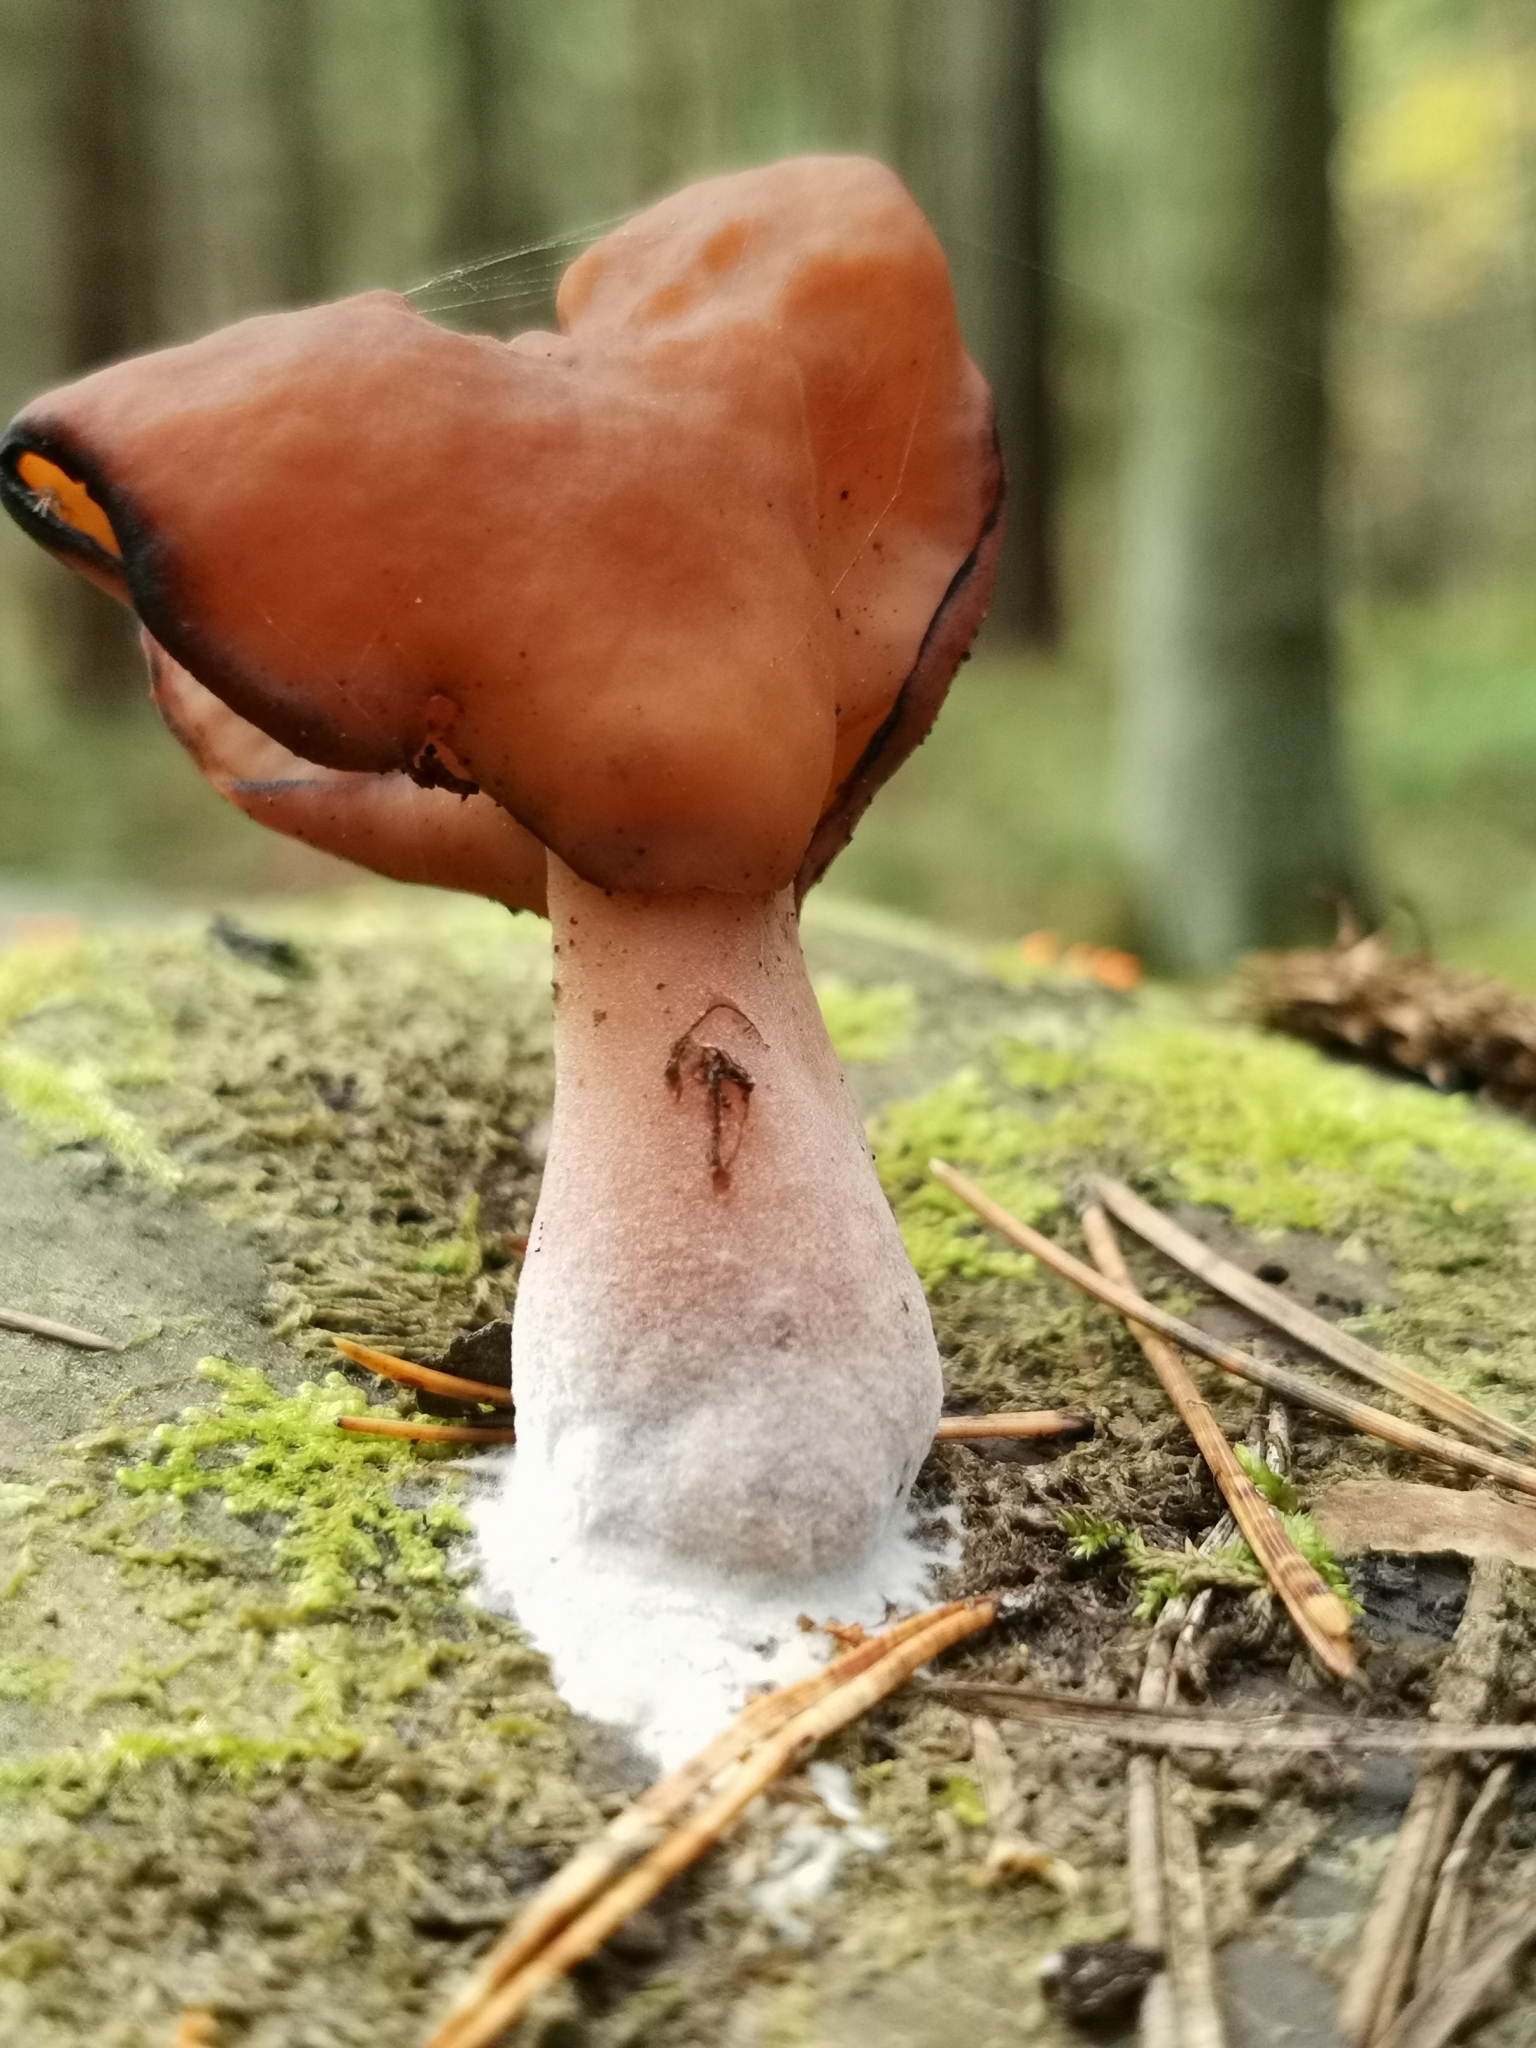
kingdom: Fungi
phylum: Ascomycota
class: Pezizomycetes
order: Pezizales
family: Discinaceae
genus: Gyromitra
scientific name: Gyromitra infula
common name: Pouched false morel
